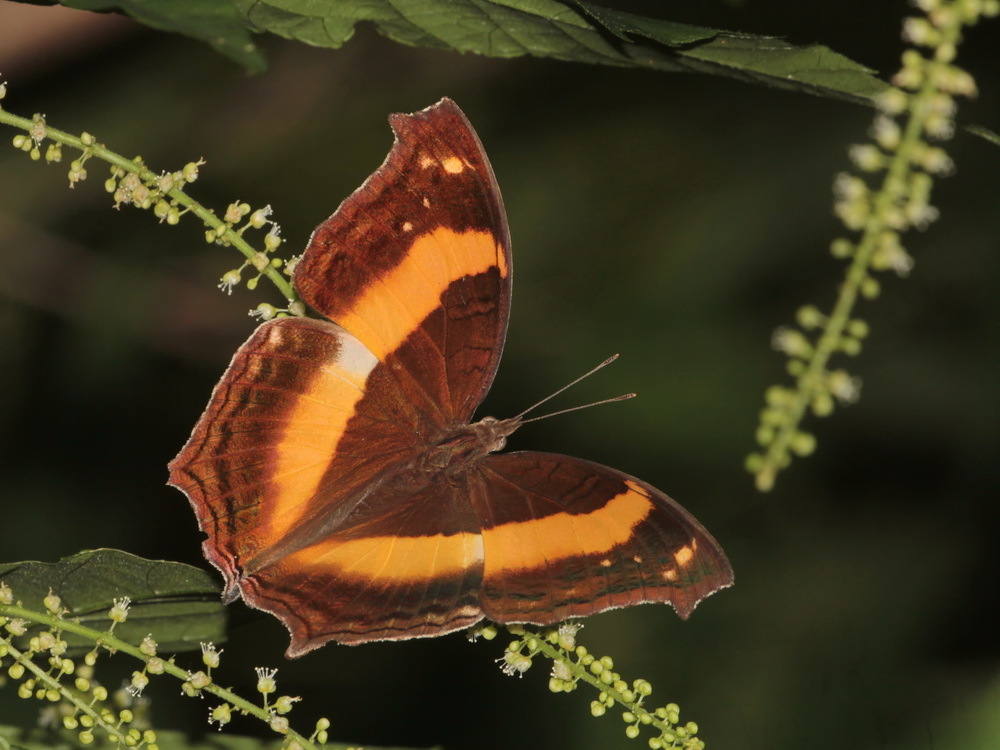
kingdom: Animalia
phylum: Arthropoda
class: Insecta
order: Lepidoptera
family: Nymphalidae
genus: Yoma
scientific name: Yoma sabina
